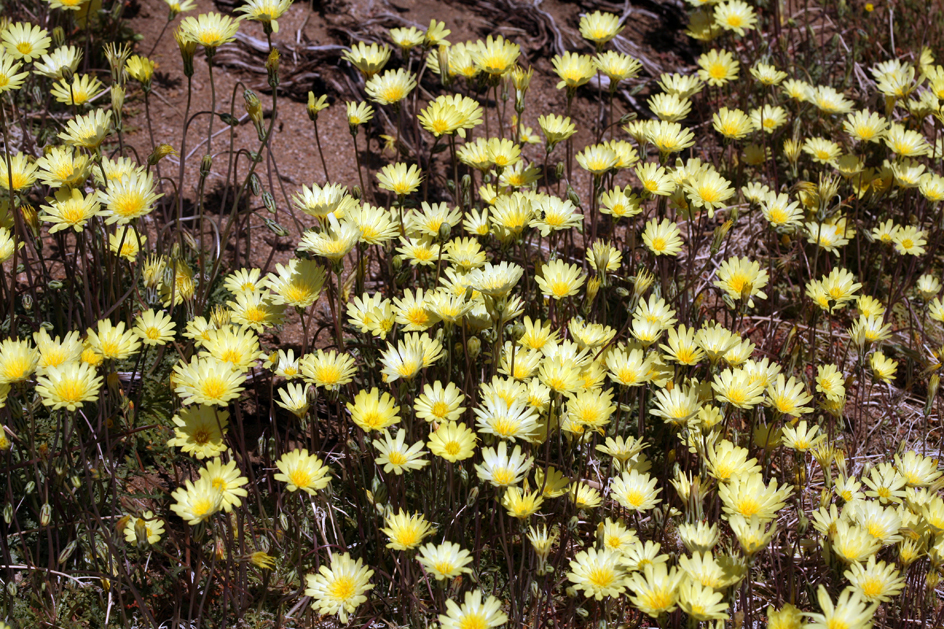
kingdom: Plantae
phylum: Tracheophyta
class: Magnoliopsida
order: Asterales
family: Asteraceae
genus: Anisocoma
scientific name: Anisocoma acaulis
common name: Scalebud
